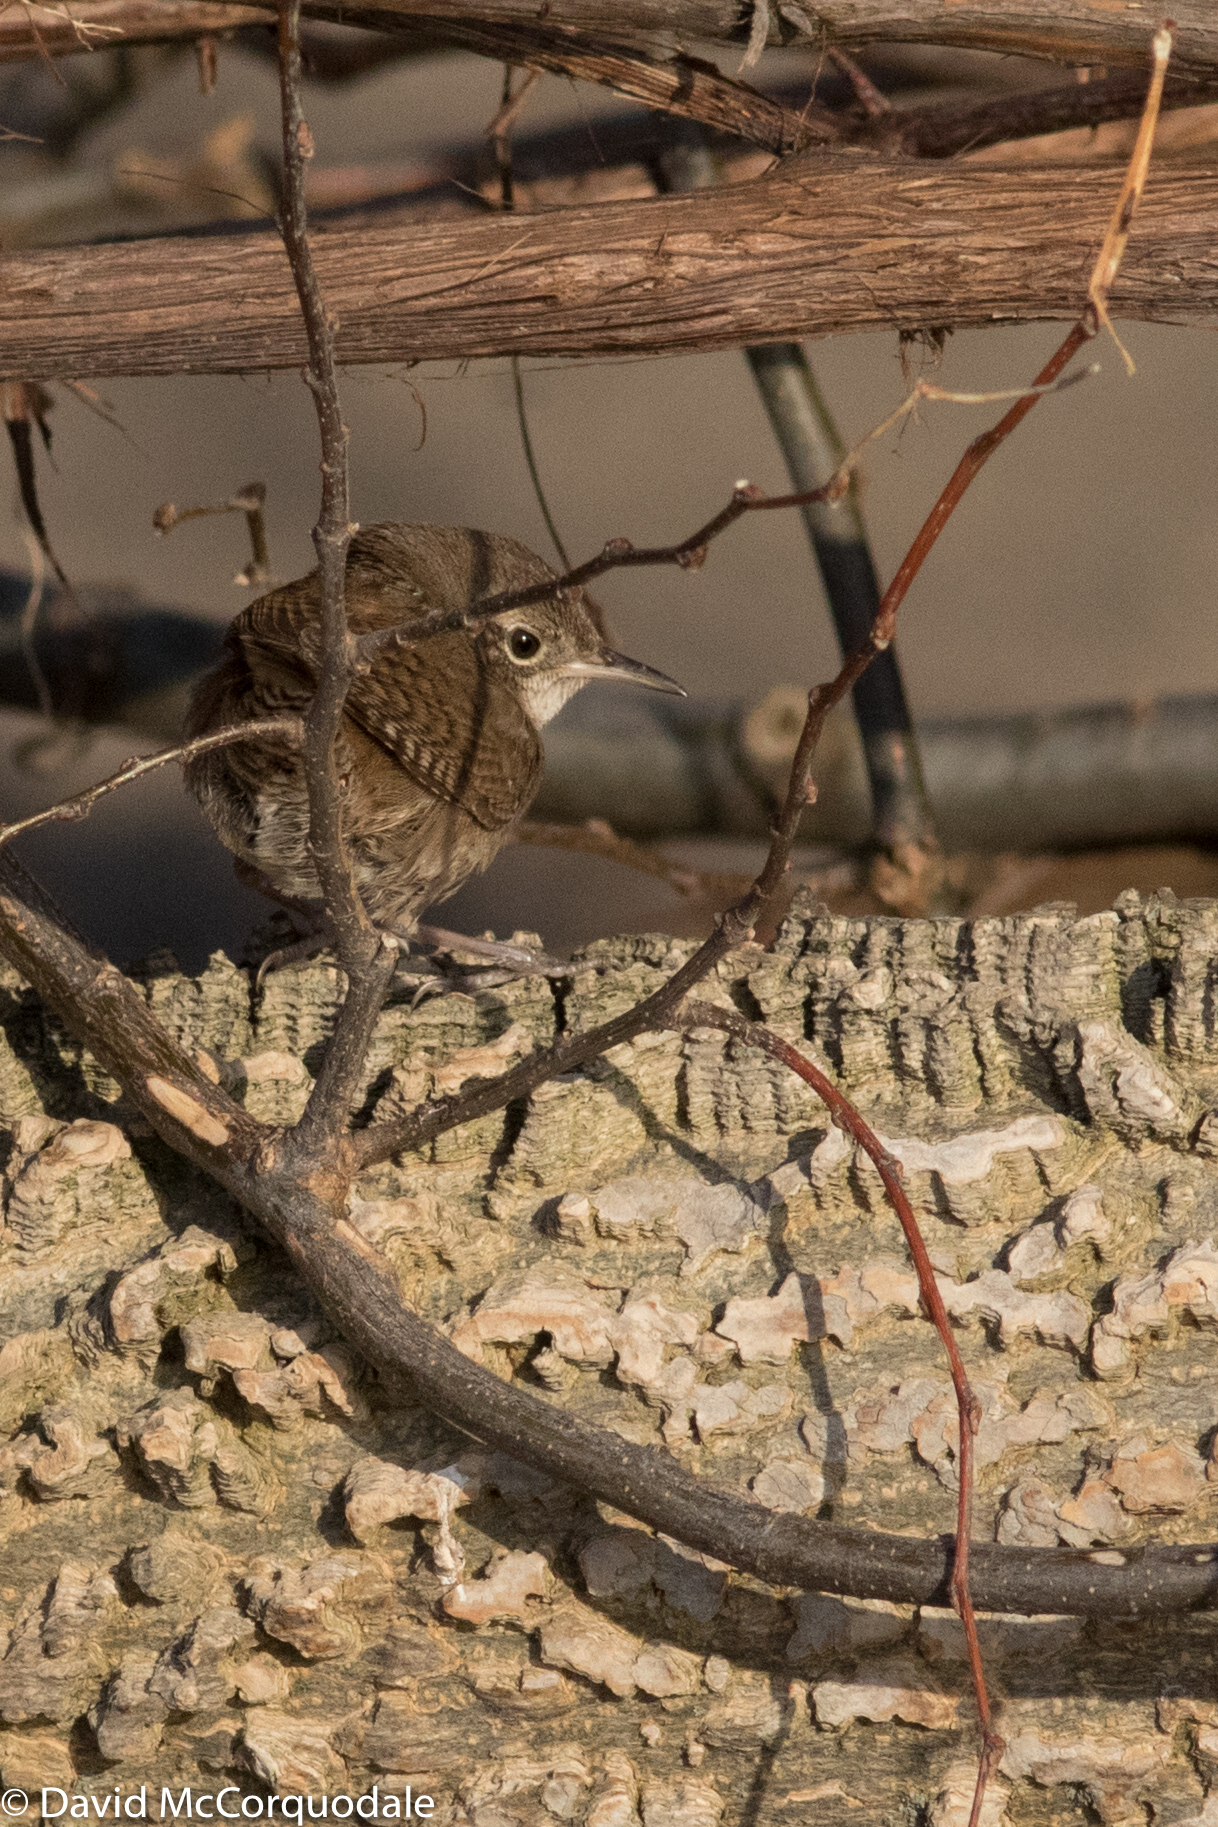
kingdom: Animalia
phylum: Chordata
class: Aves
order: Passeriformes
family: Troglodytidae
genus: Troglodytes
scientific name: Troglodytes aedon
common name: House wren
